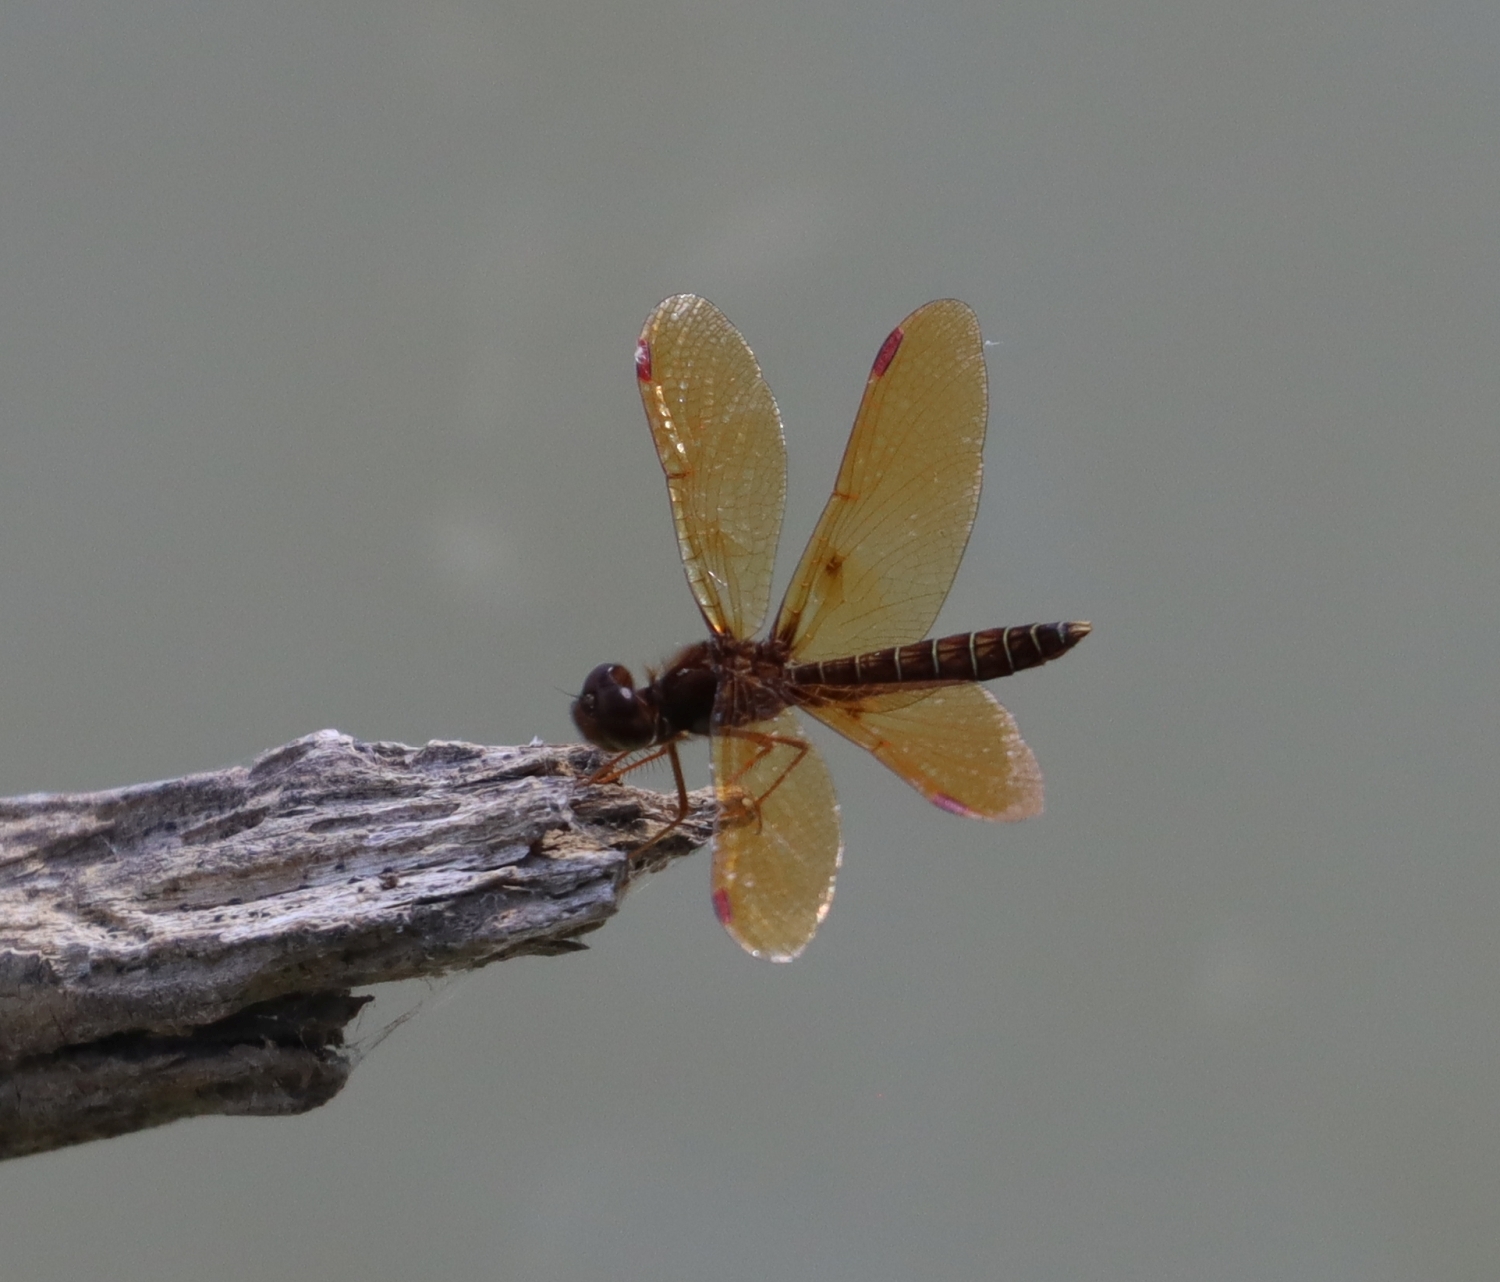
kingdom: Animalia
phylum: Arthropoda
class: Insecta
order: Odonata
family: Libellulidae
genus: Perithemis
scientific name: Perithemis tenera
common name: Eastern amberwing
